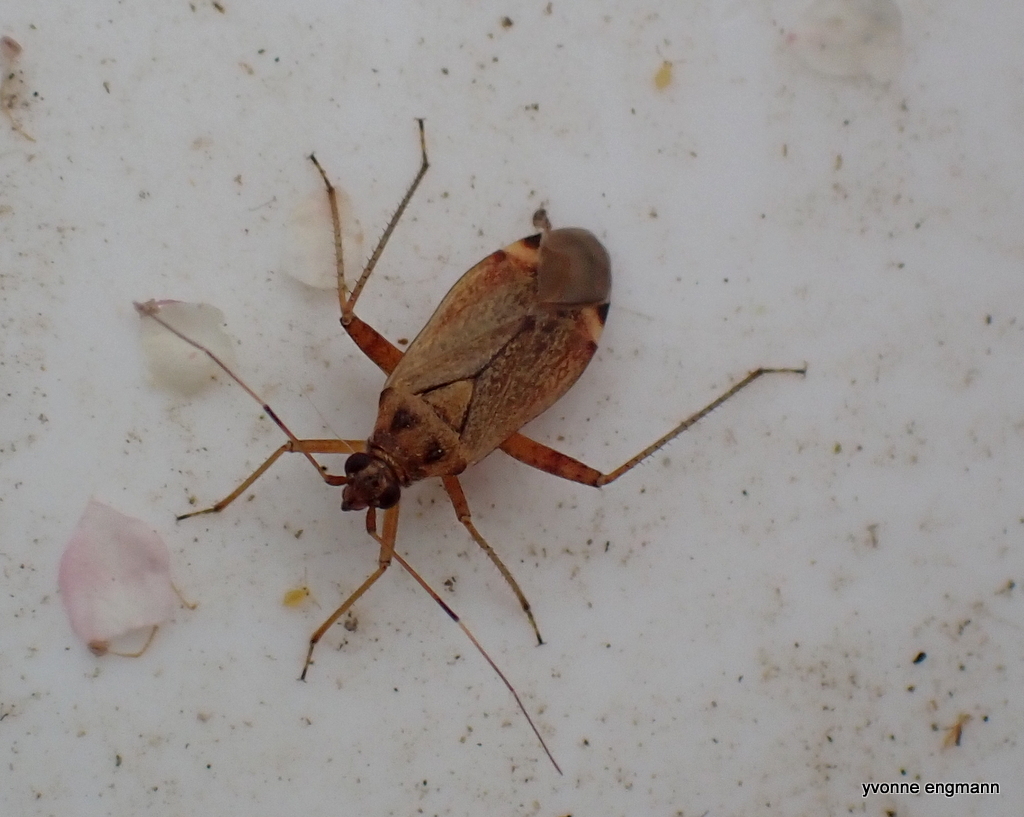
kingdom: Animalia
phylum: Arthropoda
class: Insecta
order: Hemiptera
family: Miridae
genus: Closterotomus
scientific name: Closterotomus fulvomaculatus
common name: Spotted plant bug
